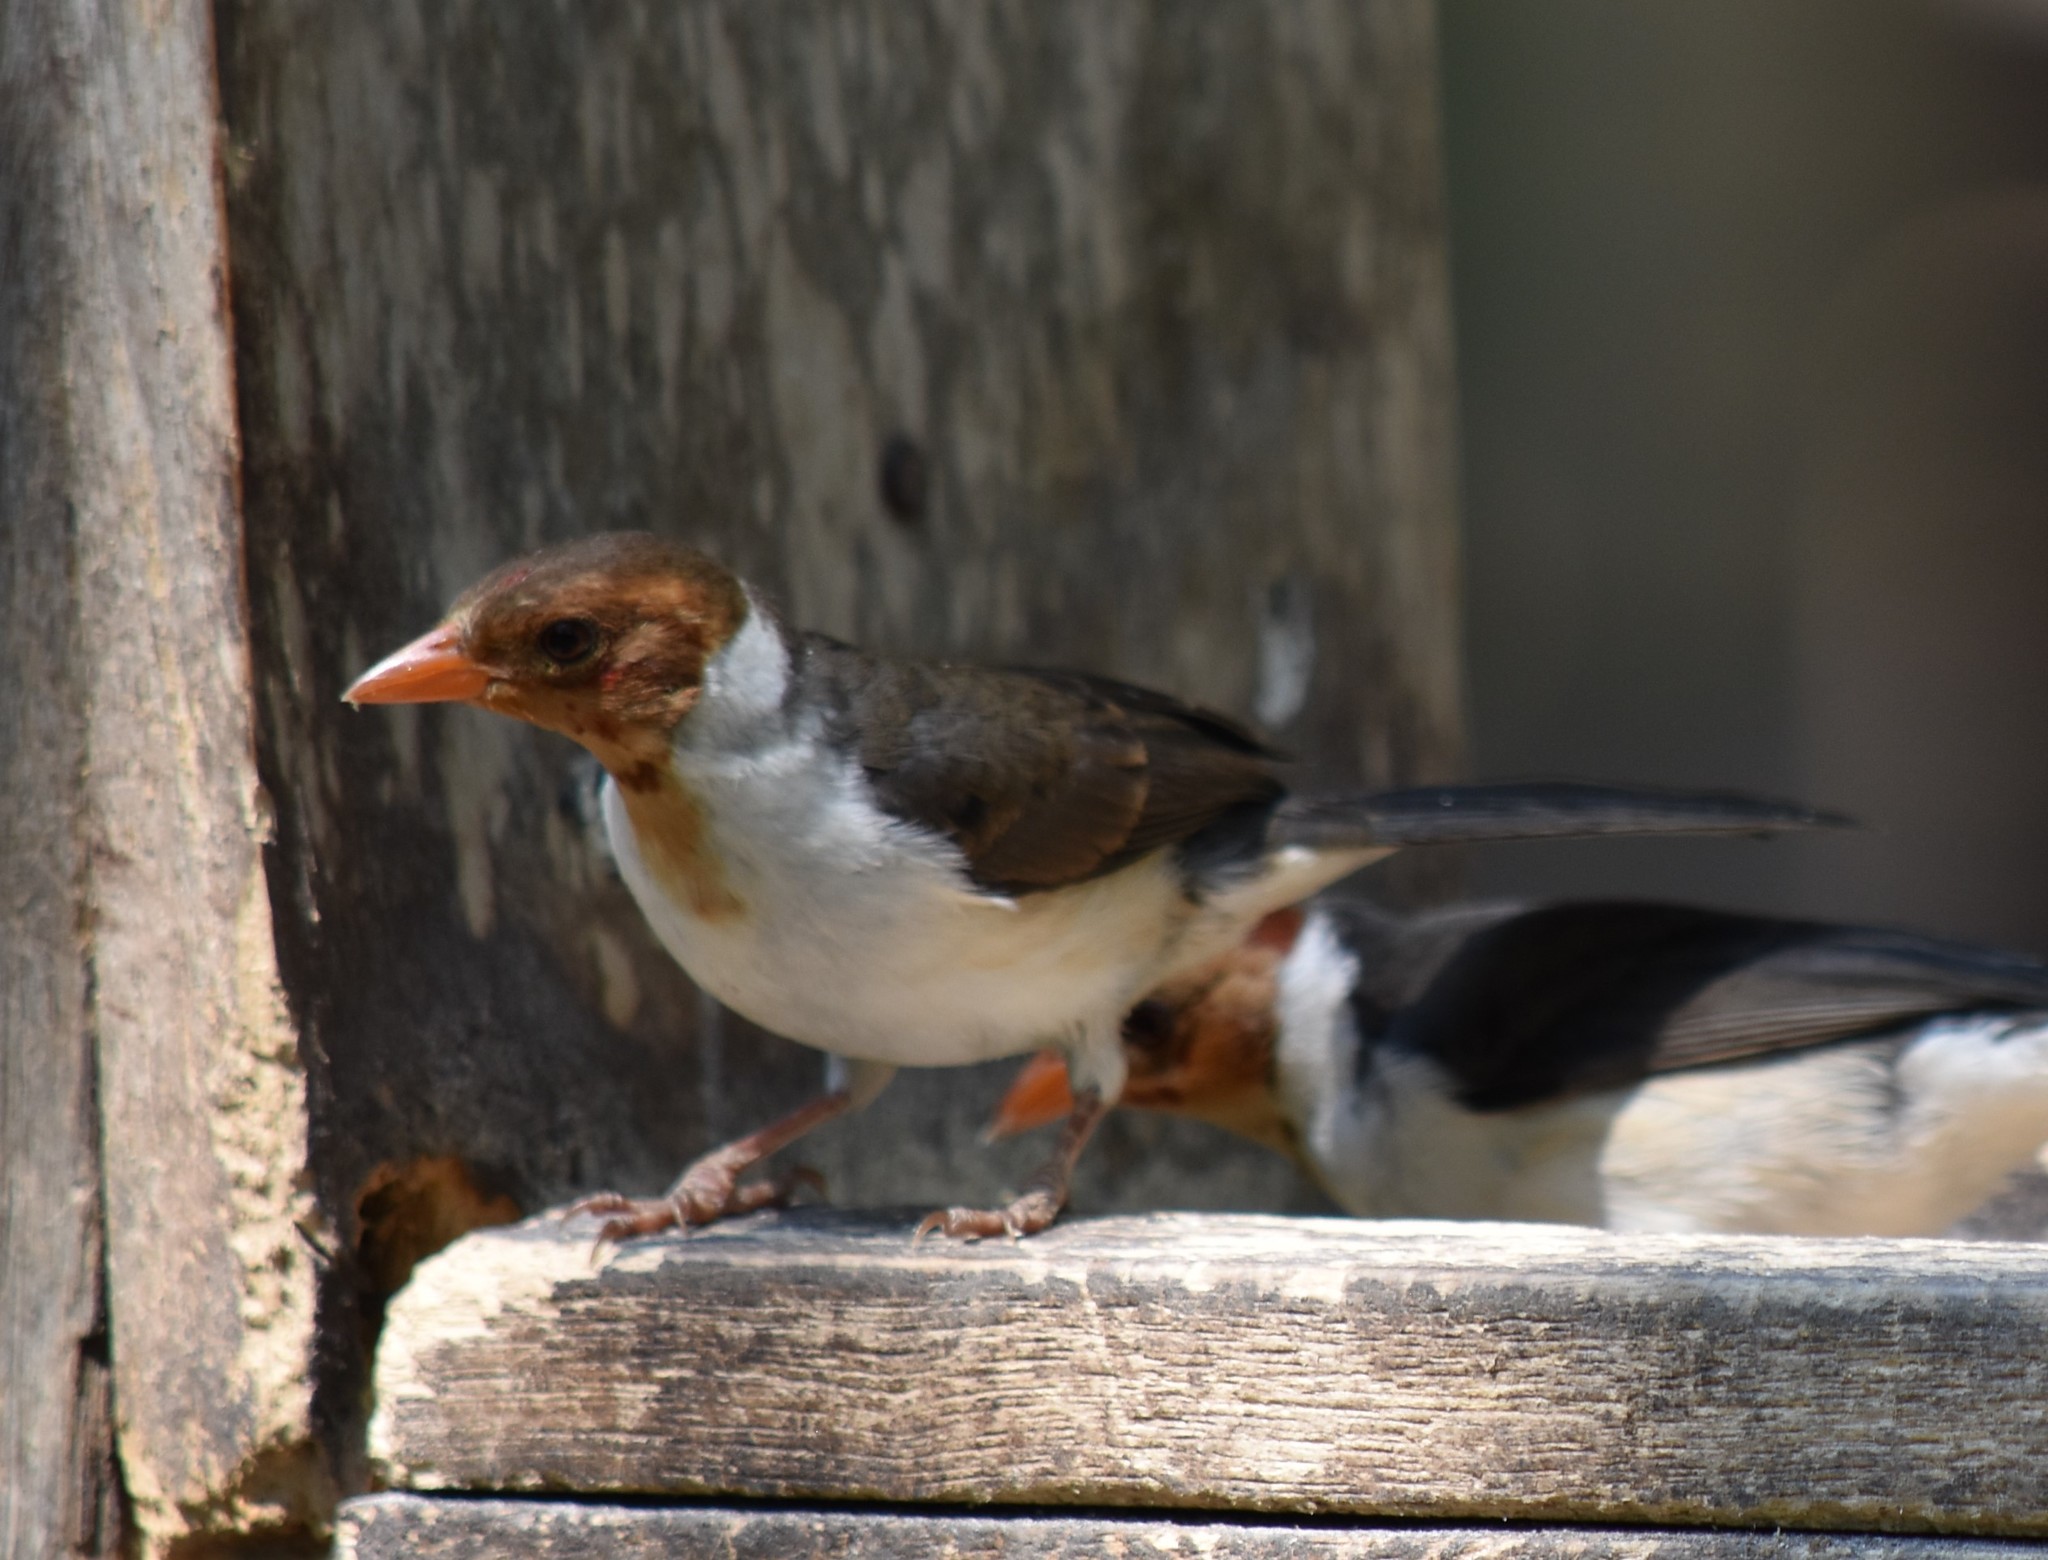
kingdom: Animalia
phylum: Chordata
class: Aves
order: Passeriformes
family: Thraupidae
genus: Paroaria
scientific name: Paroaria capitata
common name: Yellow-billed cardinal
